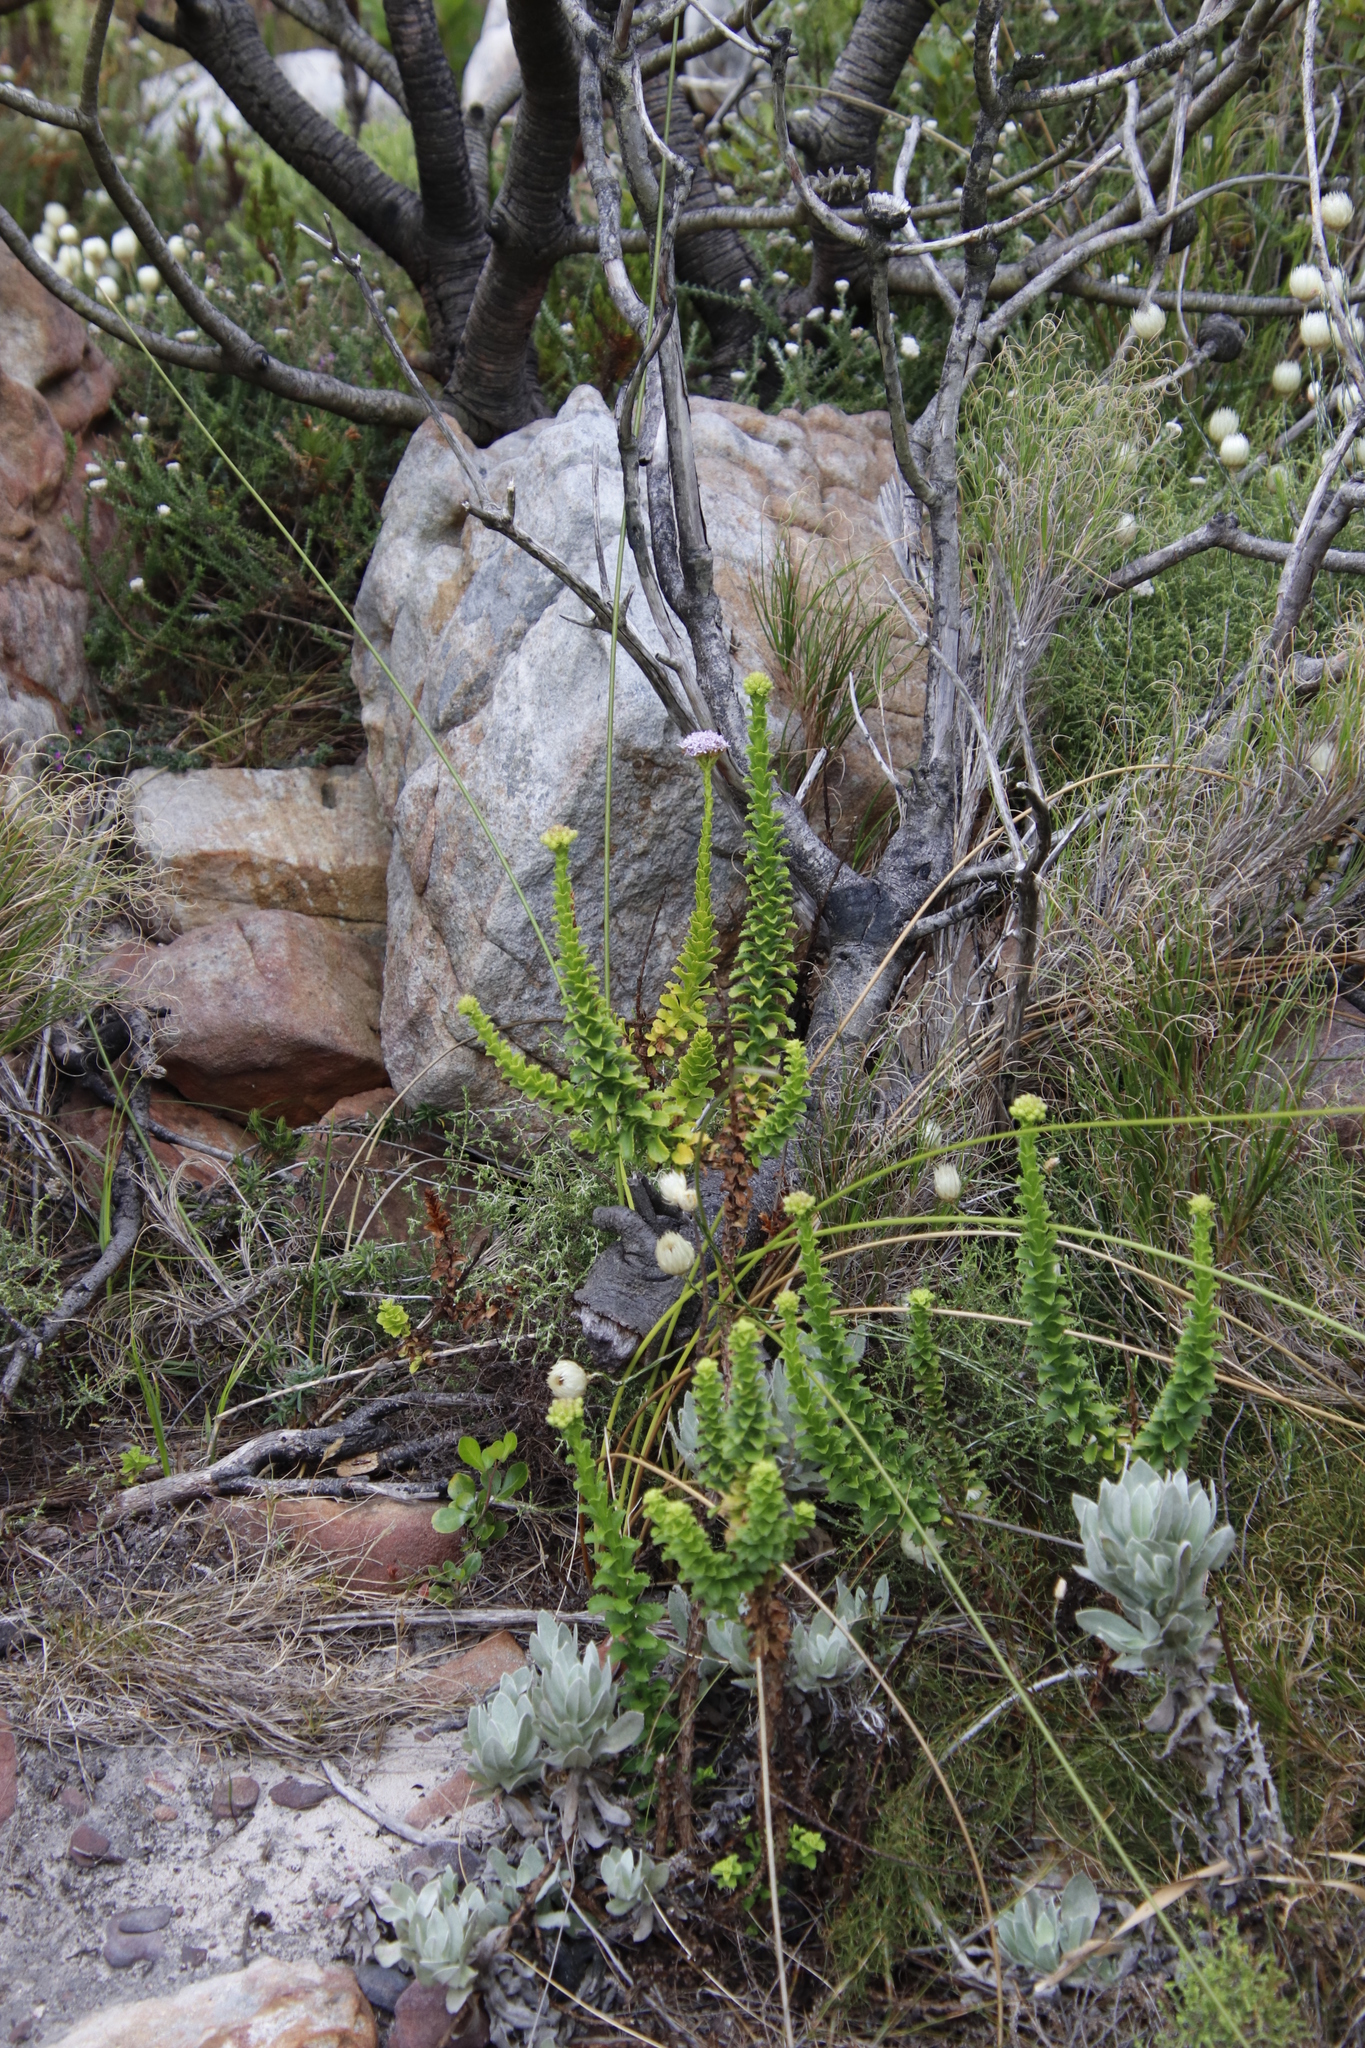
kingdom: Plantae
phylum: Tracheophyta
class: Magnoliopsida
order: Lamiales
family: Scrophulariaceae
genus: Pseudoselago
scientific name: Pseudoselago serrata
